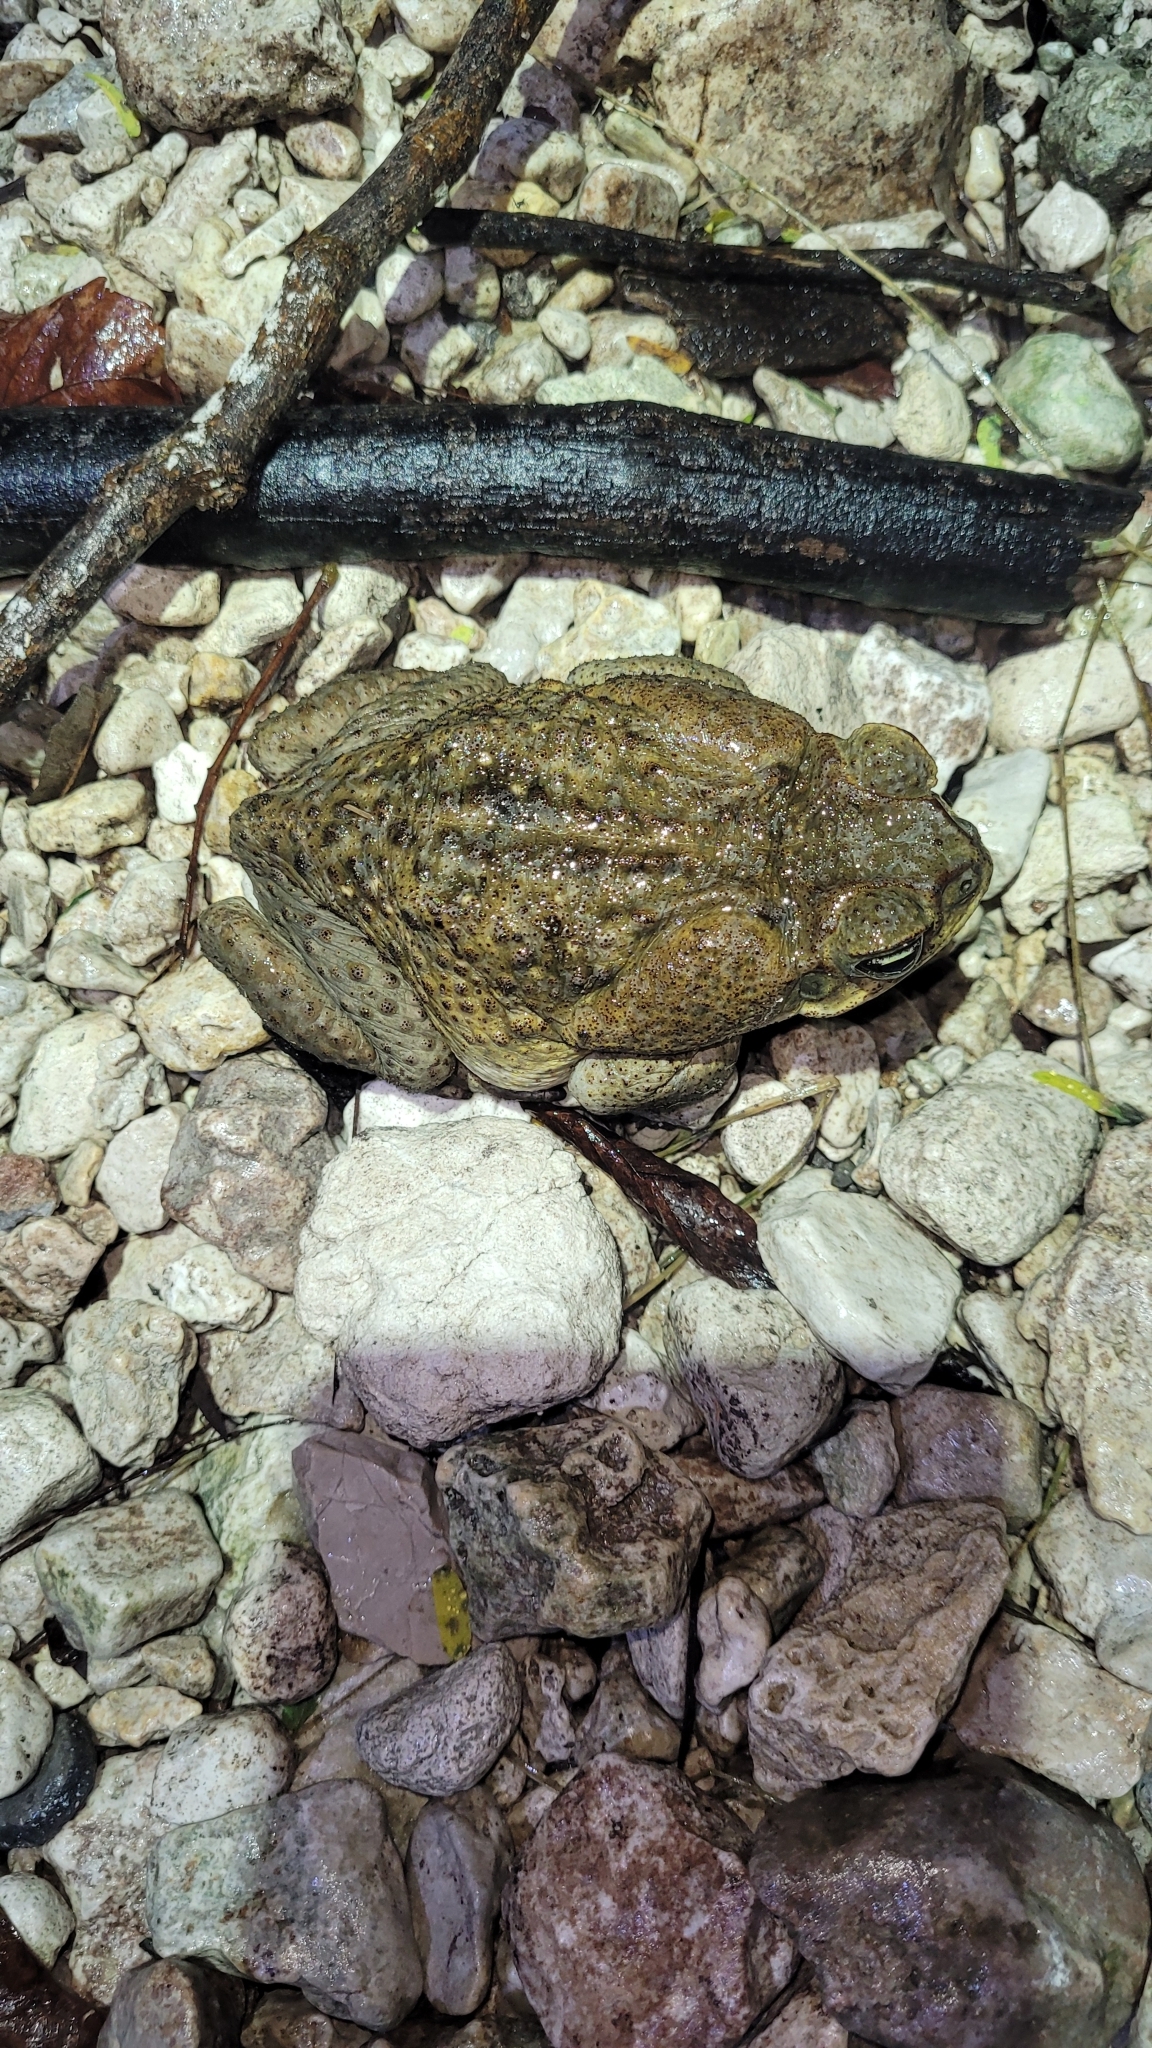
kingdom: Animalia
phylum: Chordata
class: Amphibia
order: Anura
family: Bufonidae
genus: Rhinella
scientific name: Rhinella horribilis
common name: Mesoamerican cane toad
